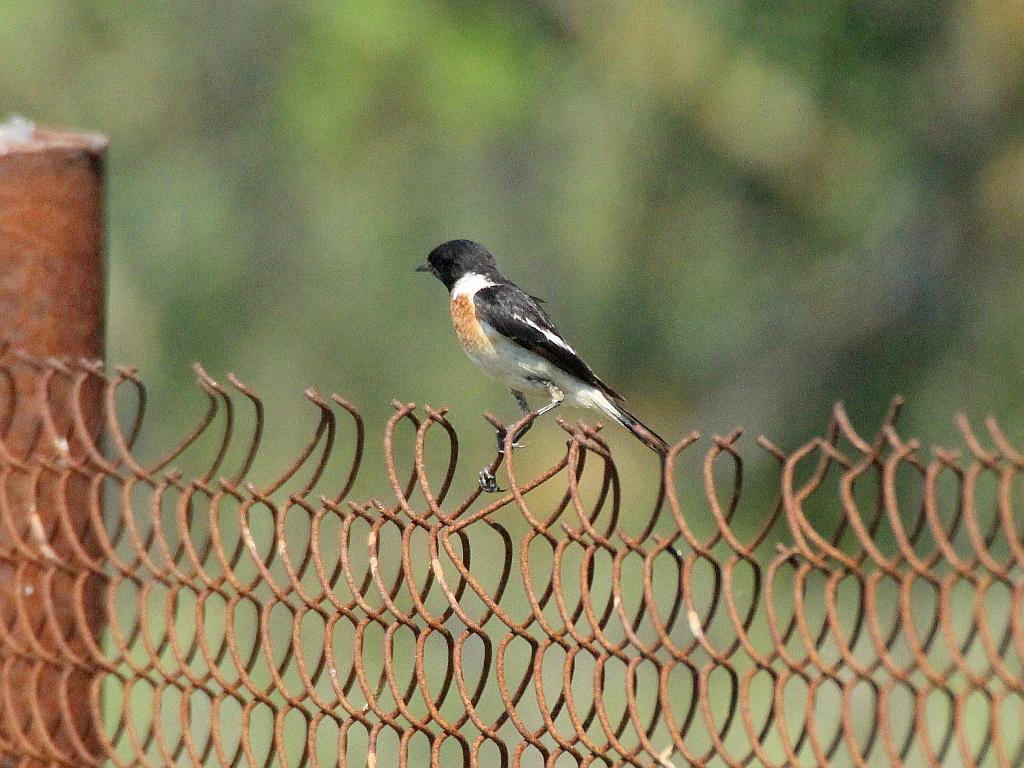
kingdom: Animalia
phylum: Chordata
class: Aves
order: Passeriformes
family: Muscicapidae
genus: Saxicola
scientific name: Saxicola maurus
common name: Siberian stonechat
